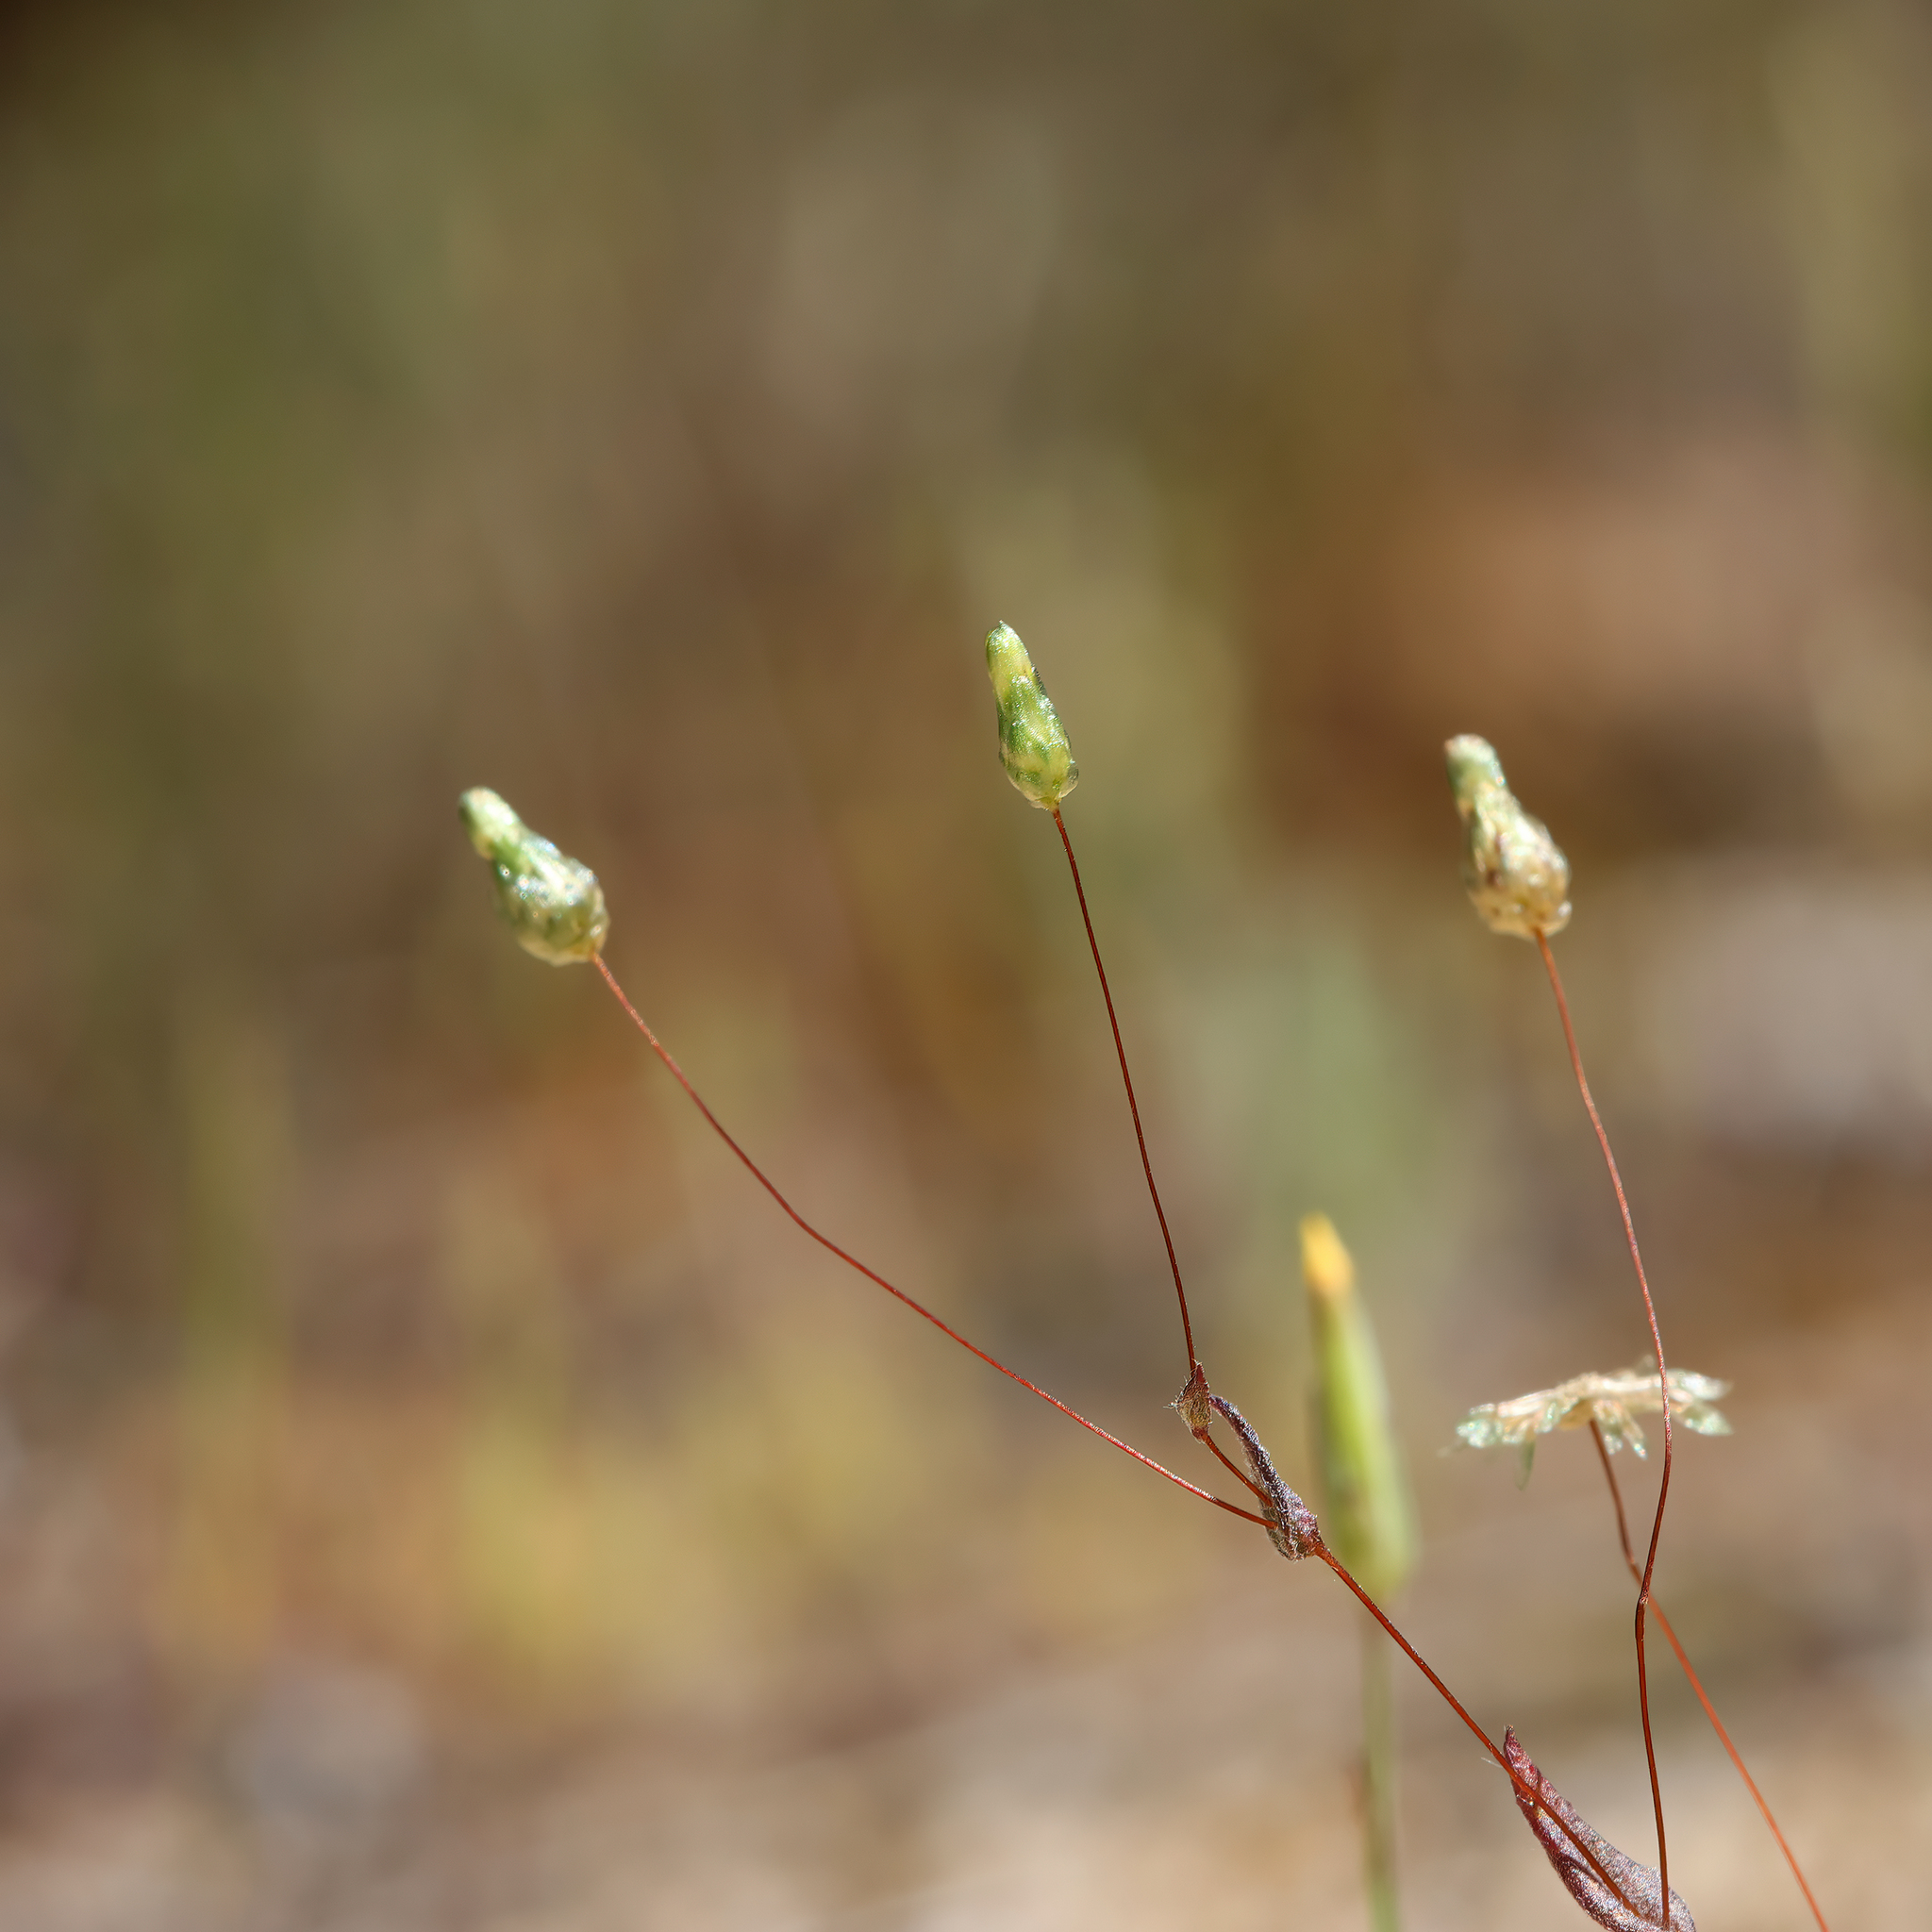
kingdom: Plantae
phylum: Tracheophyta
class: Magnoliopsida
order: Asterales
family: Asteraceae
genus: Panaetia
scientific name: Panaetia tepperi
